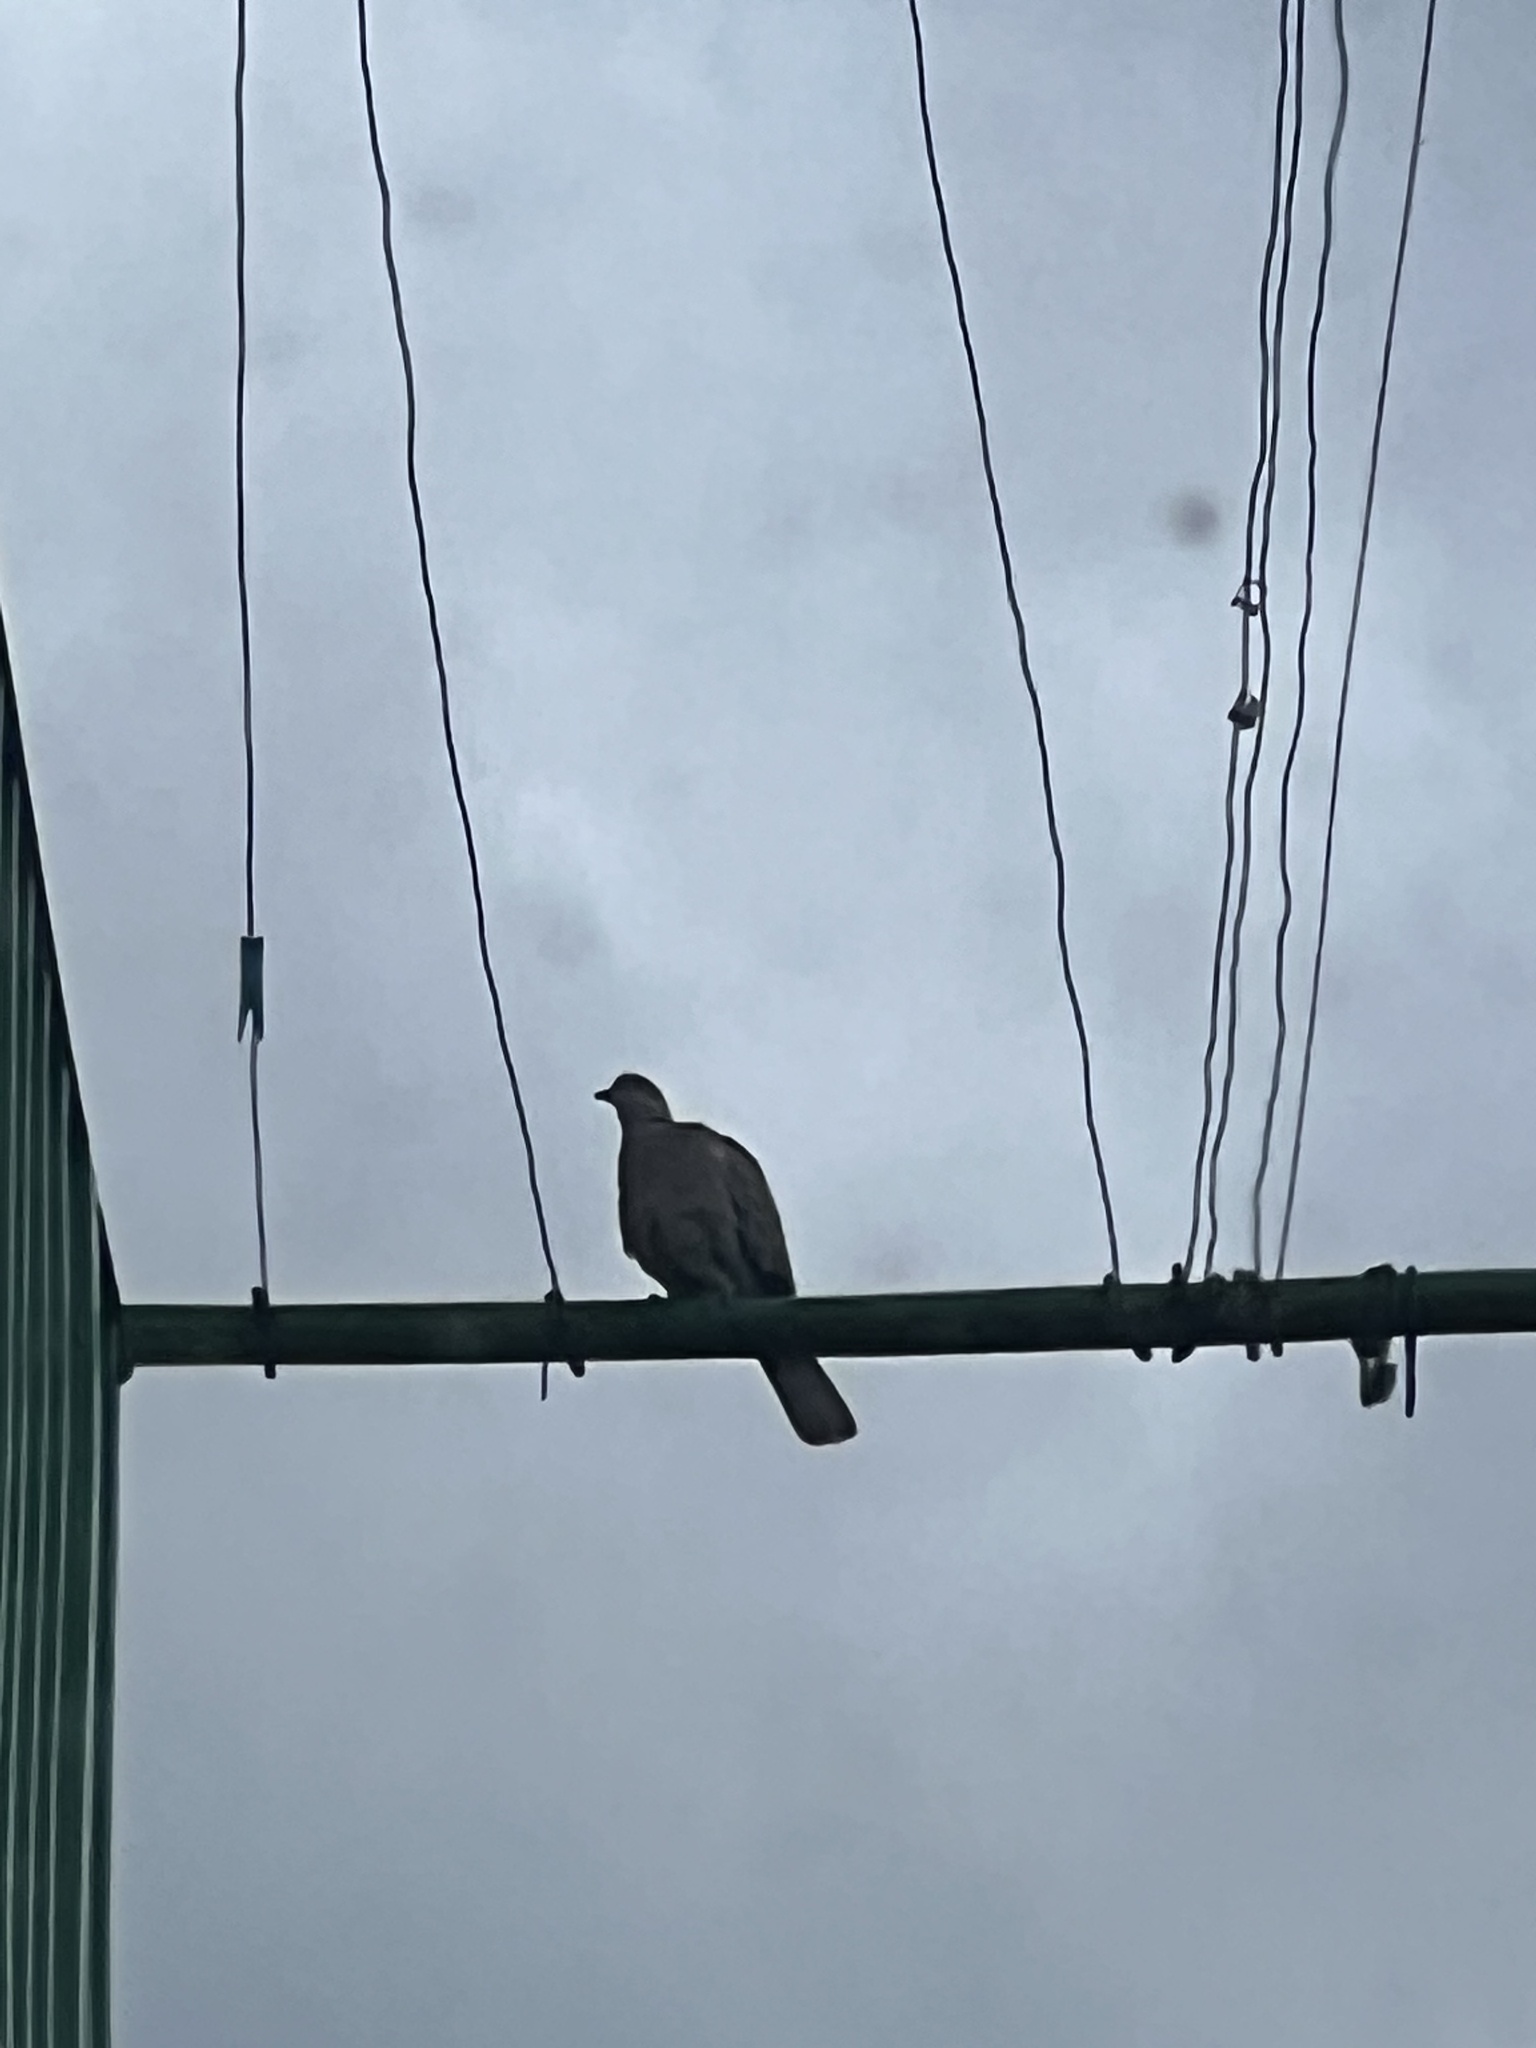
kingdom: Animalia
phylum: Chordata
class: Aves
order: Columbiformes
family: Columbidae
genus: Streptopelia
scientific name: Streptopelia decaocto
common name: Eurasian collared dove
